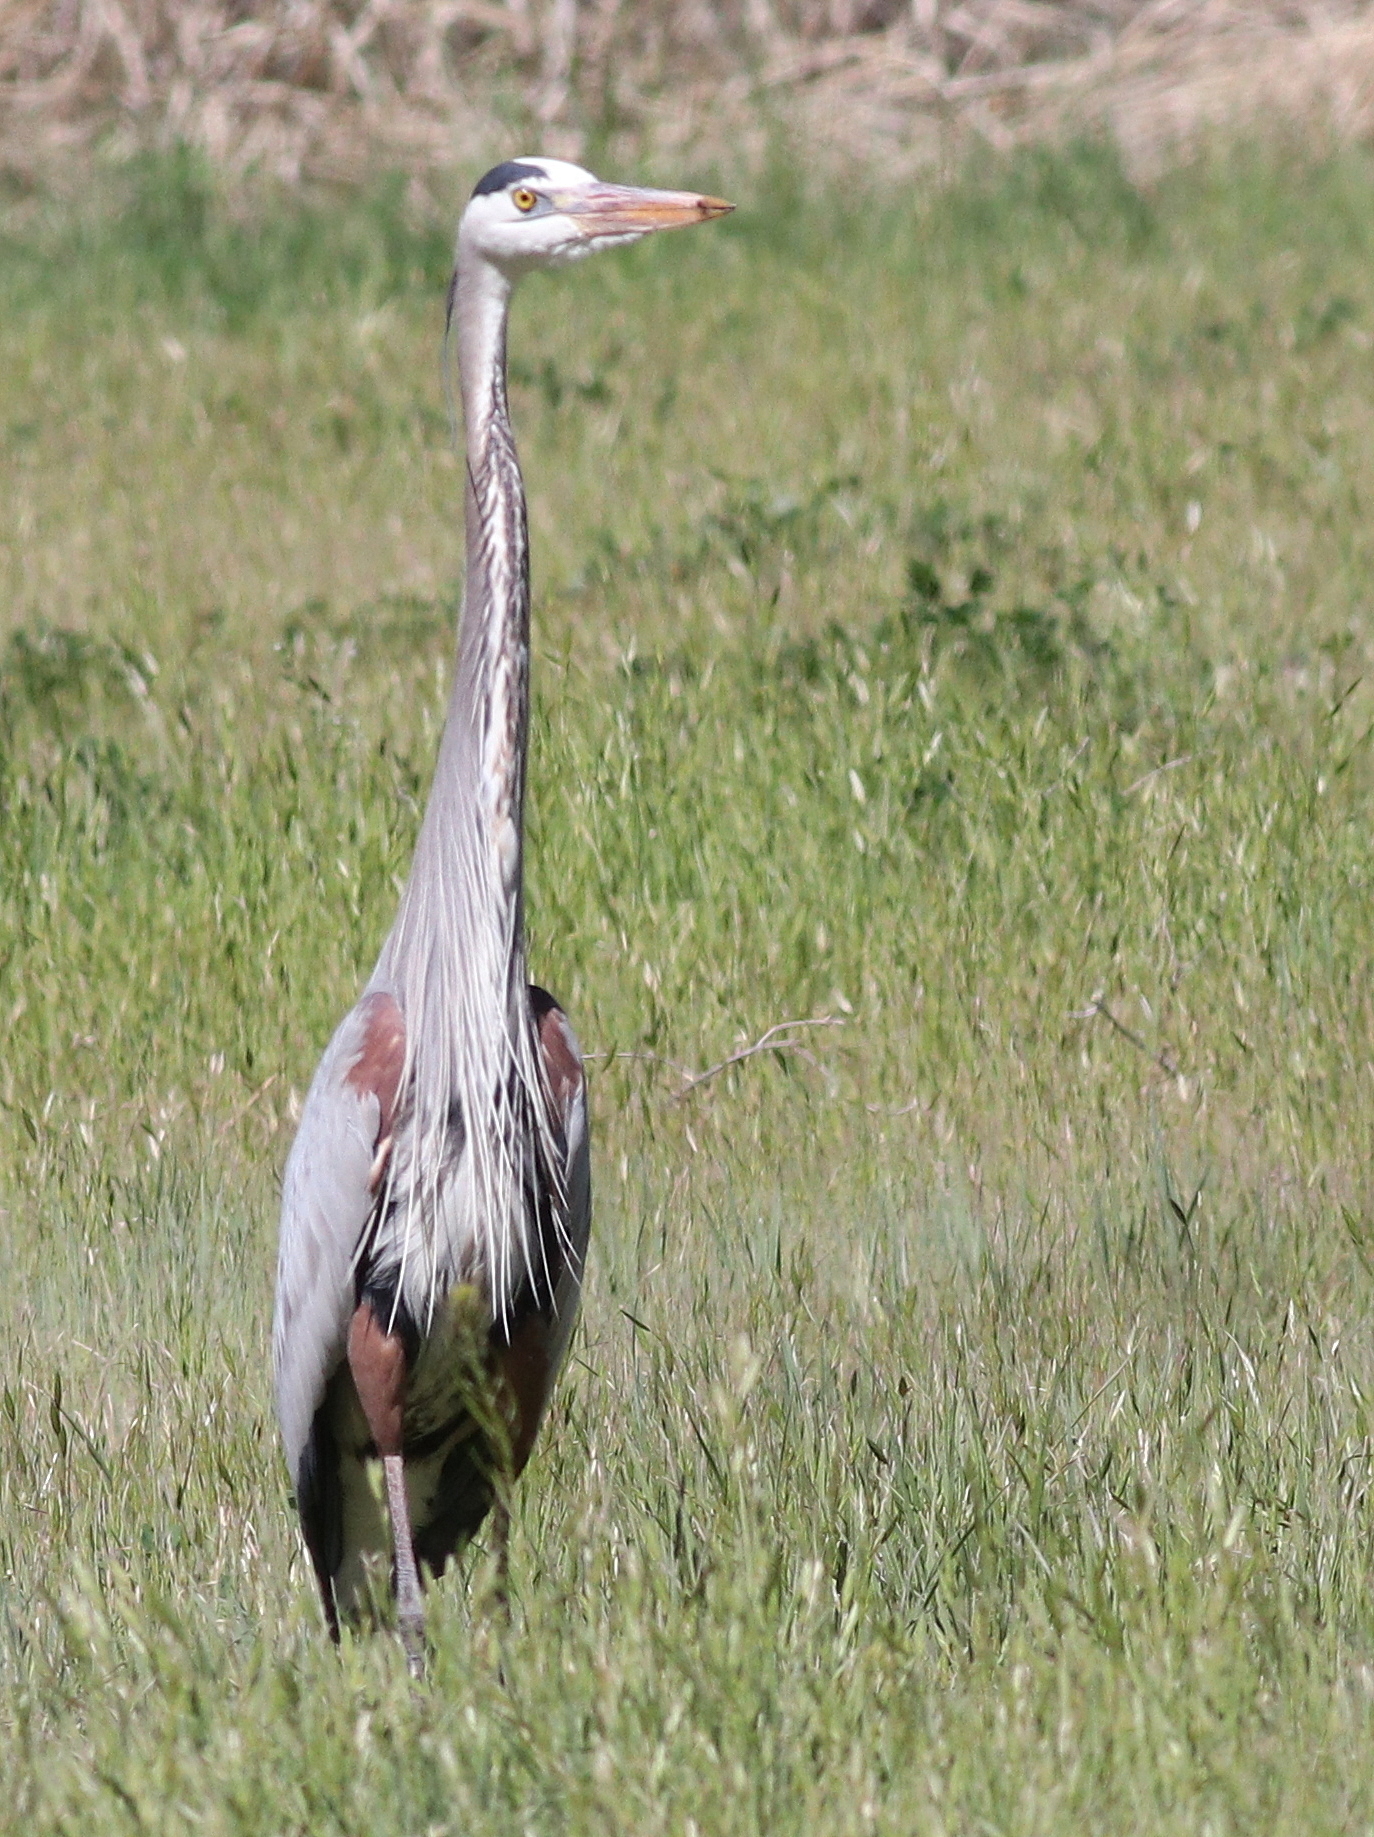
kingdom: Animalia
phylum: Chordata
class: Aves
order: Pelecaniformes
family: Ardeidae
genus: Ardea
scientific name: Ardea herodias
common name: Great blue heron
